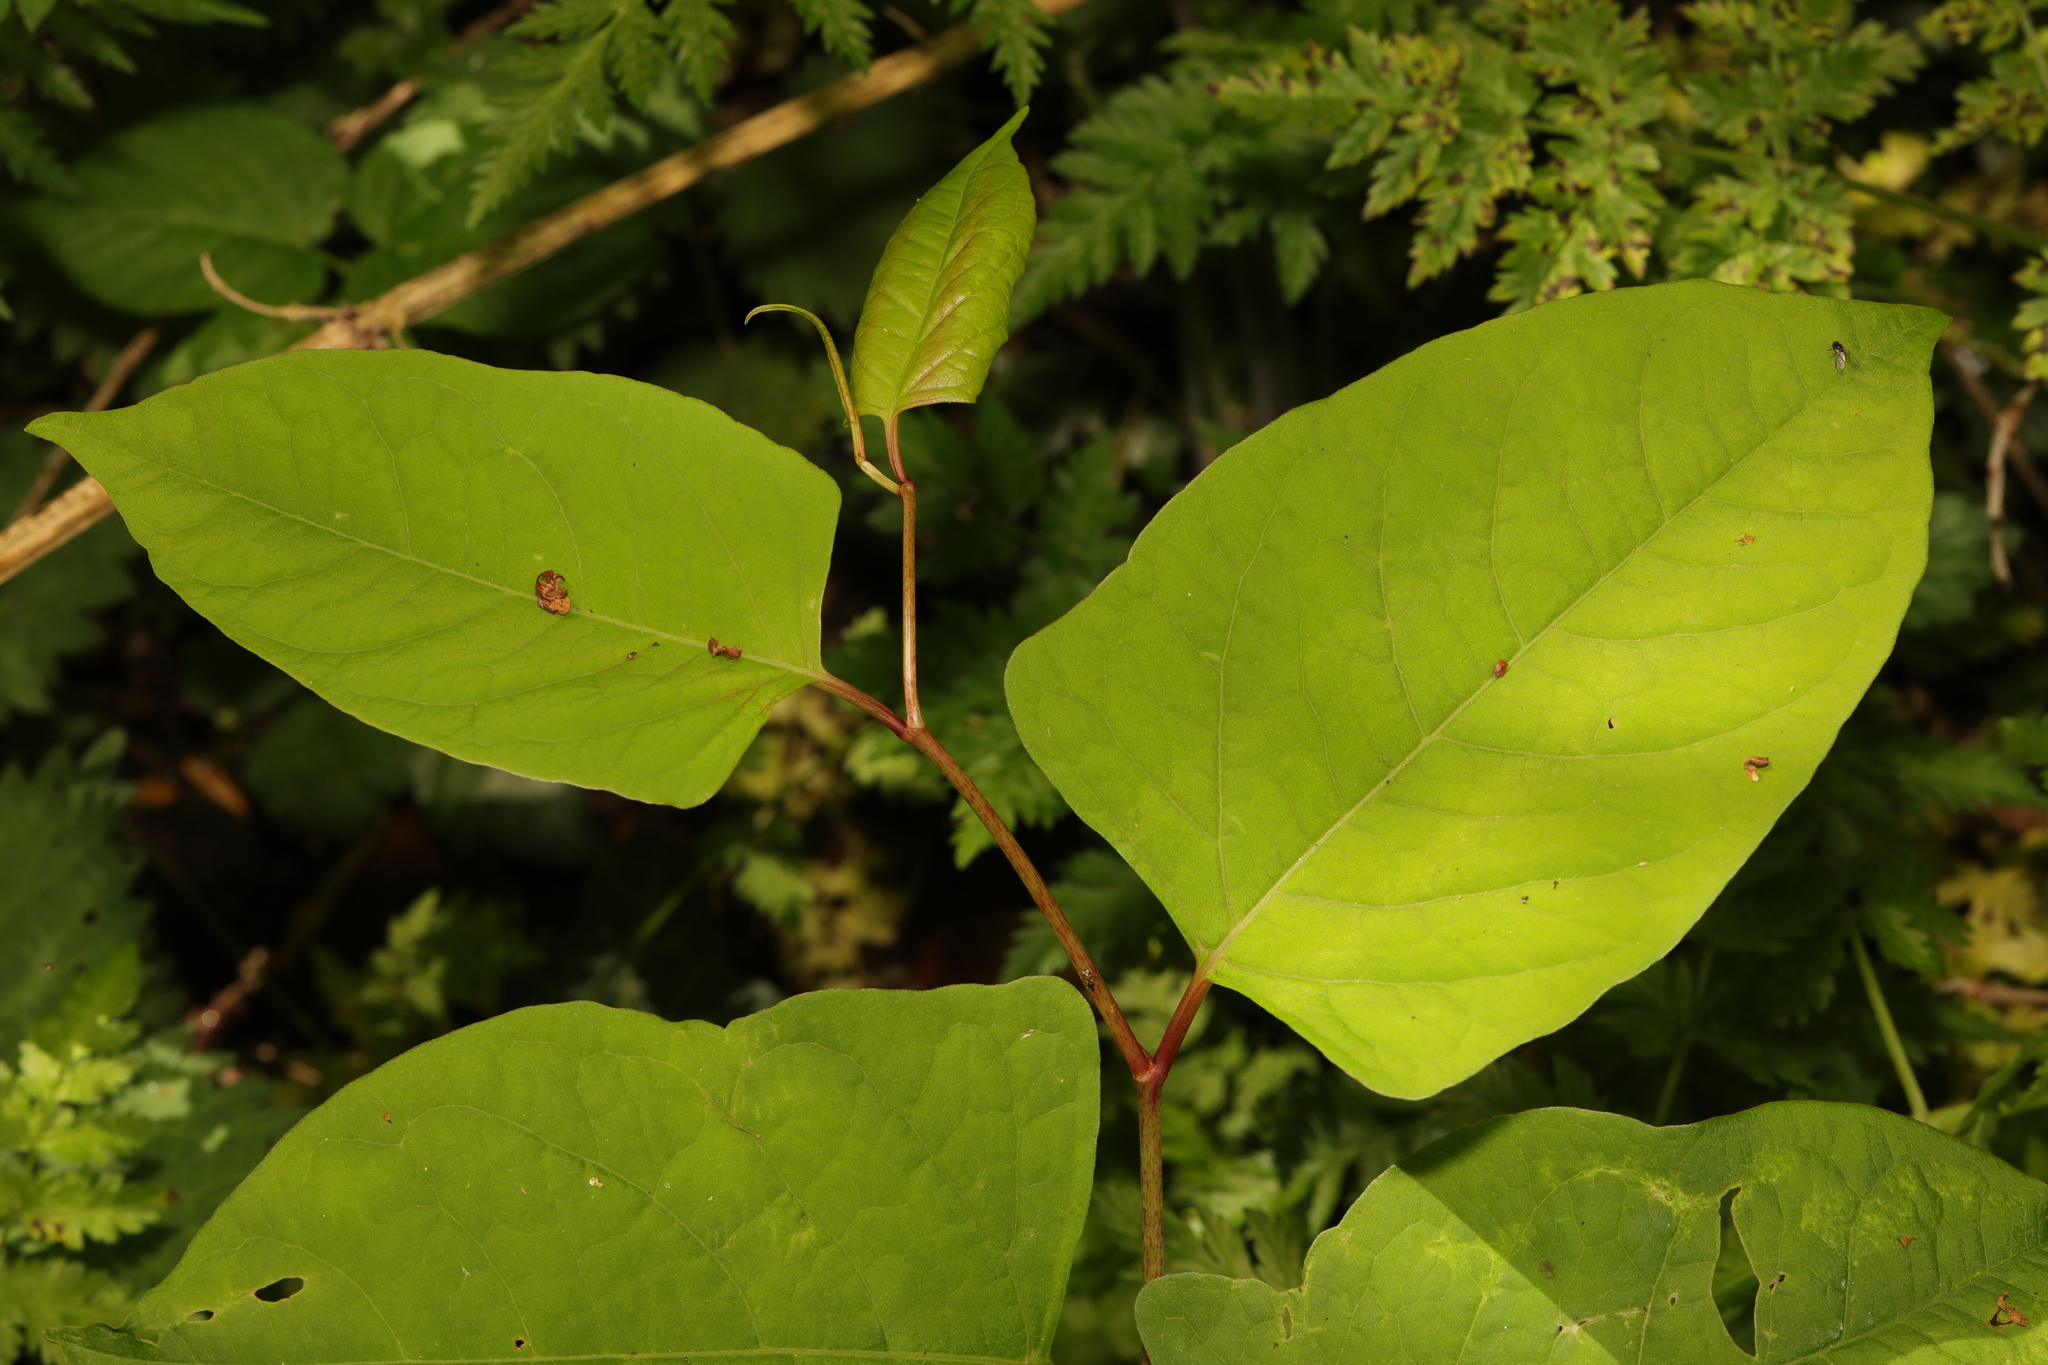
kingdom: Plantae
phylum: Tracheophyta
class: Magnoliopsida
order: Caryophyllales
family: Polygonaceae
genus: Reynoutria
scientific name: Reynoutria japonica
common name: Japanese knotweed
